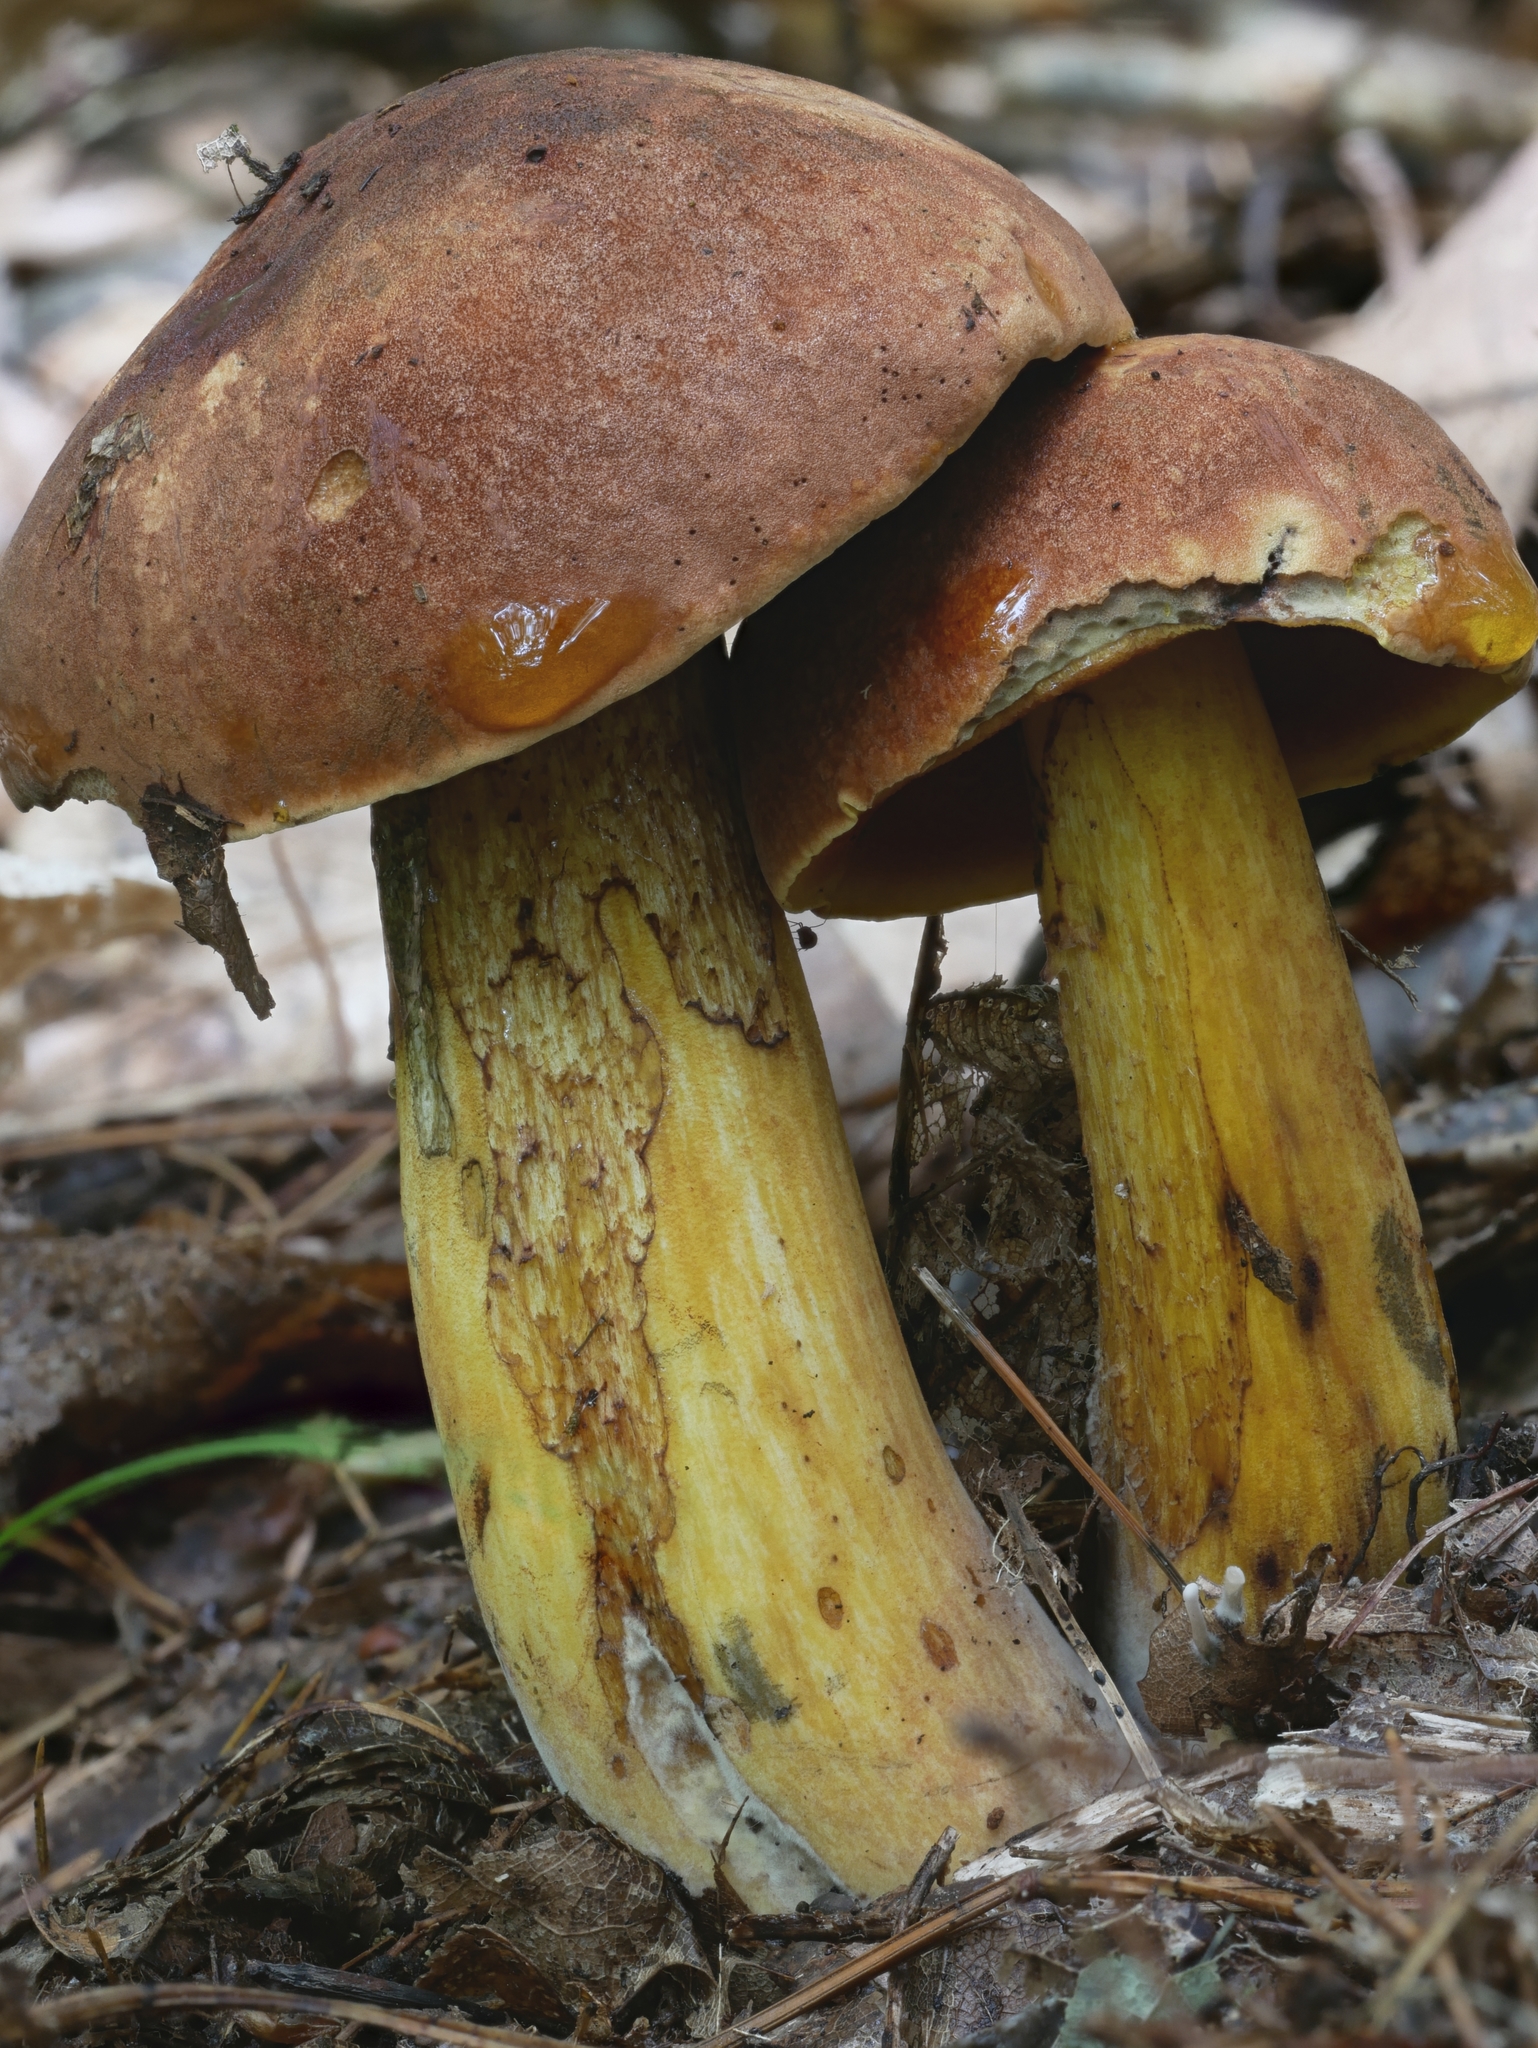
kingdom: Fungi
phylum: Basidiomycota
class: Agaricomycetes
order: Boletales
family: Boletaceae
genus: Boletus
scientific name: Boletus subvelutipes
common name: Red-mouth bolete
